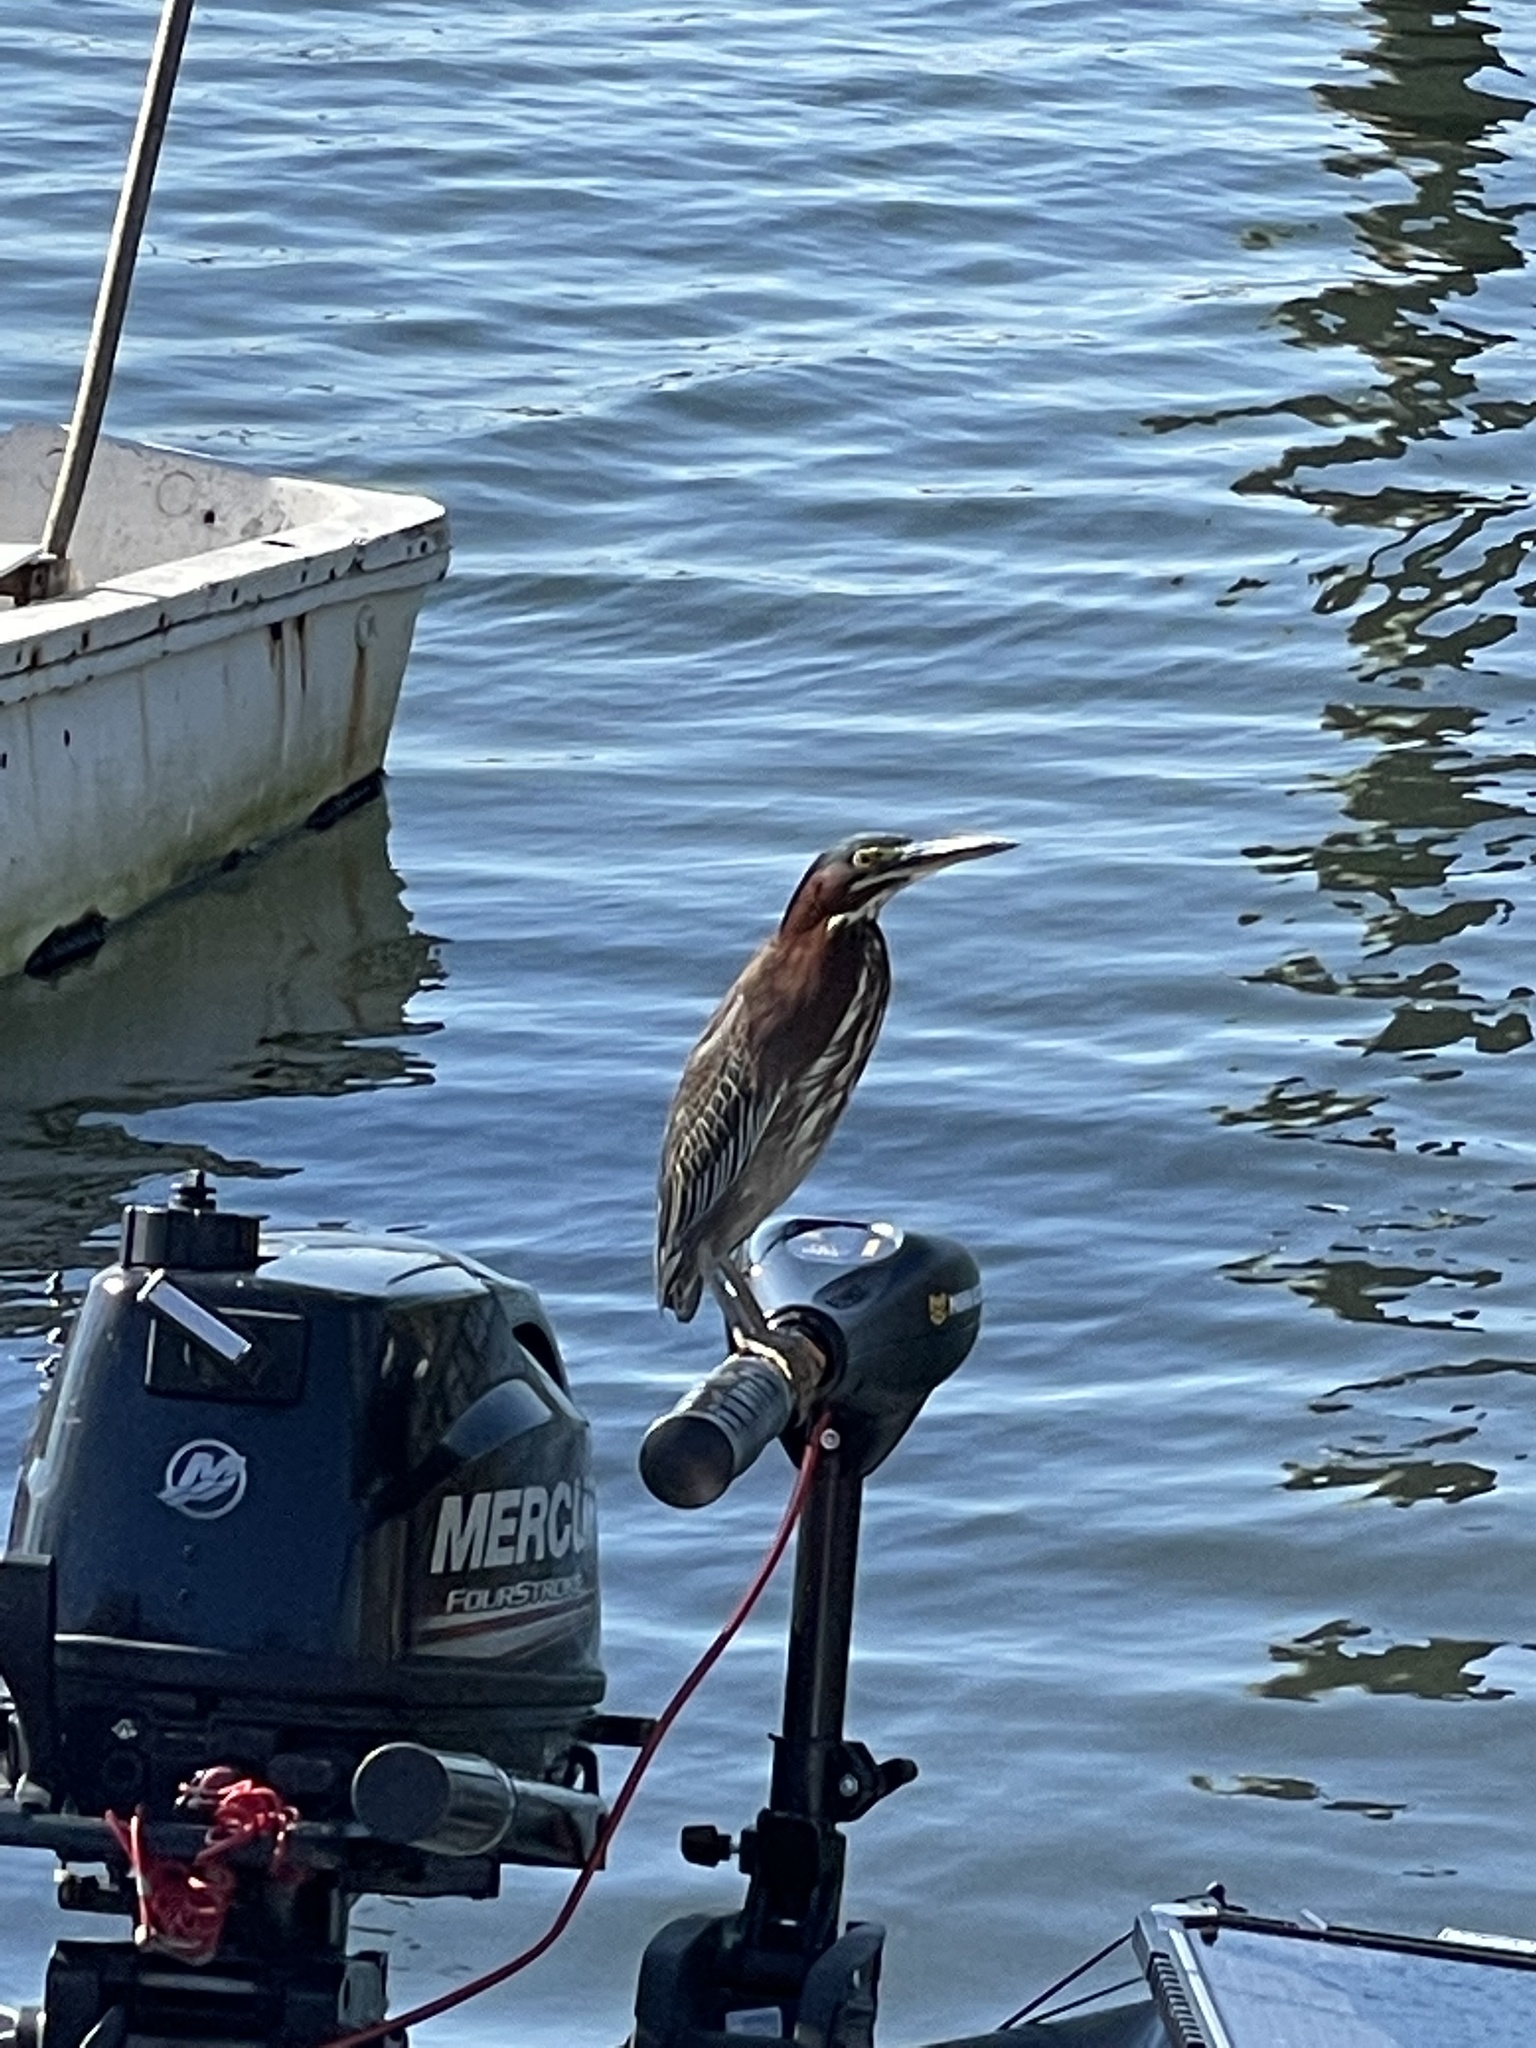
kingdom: Animalia
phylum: Chordata
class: Aves
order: Pelecaniformes
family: Ardeidae
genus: Butorides
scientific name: Butorides virescens
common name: Green heron
